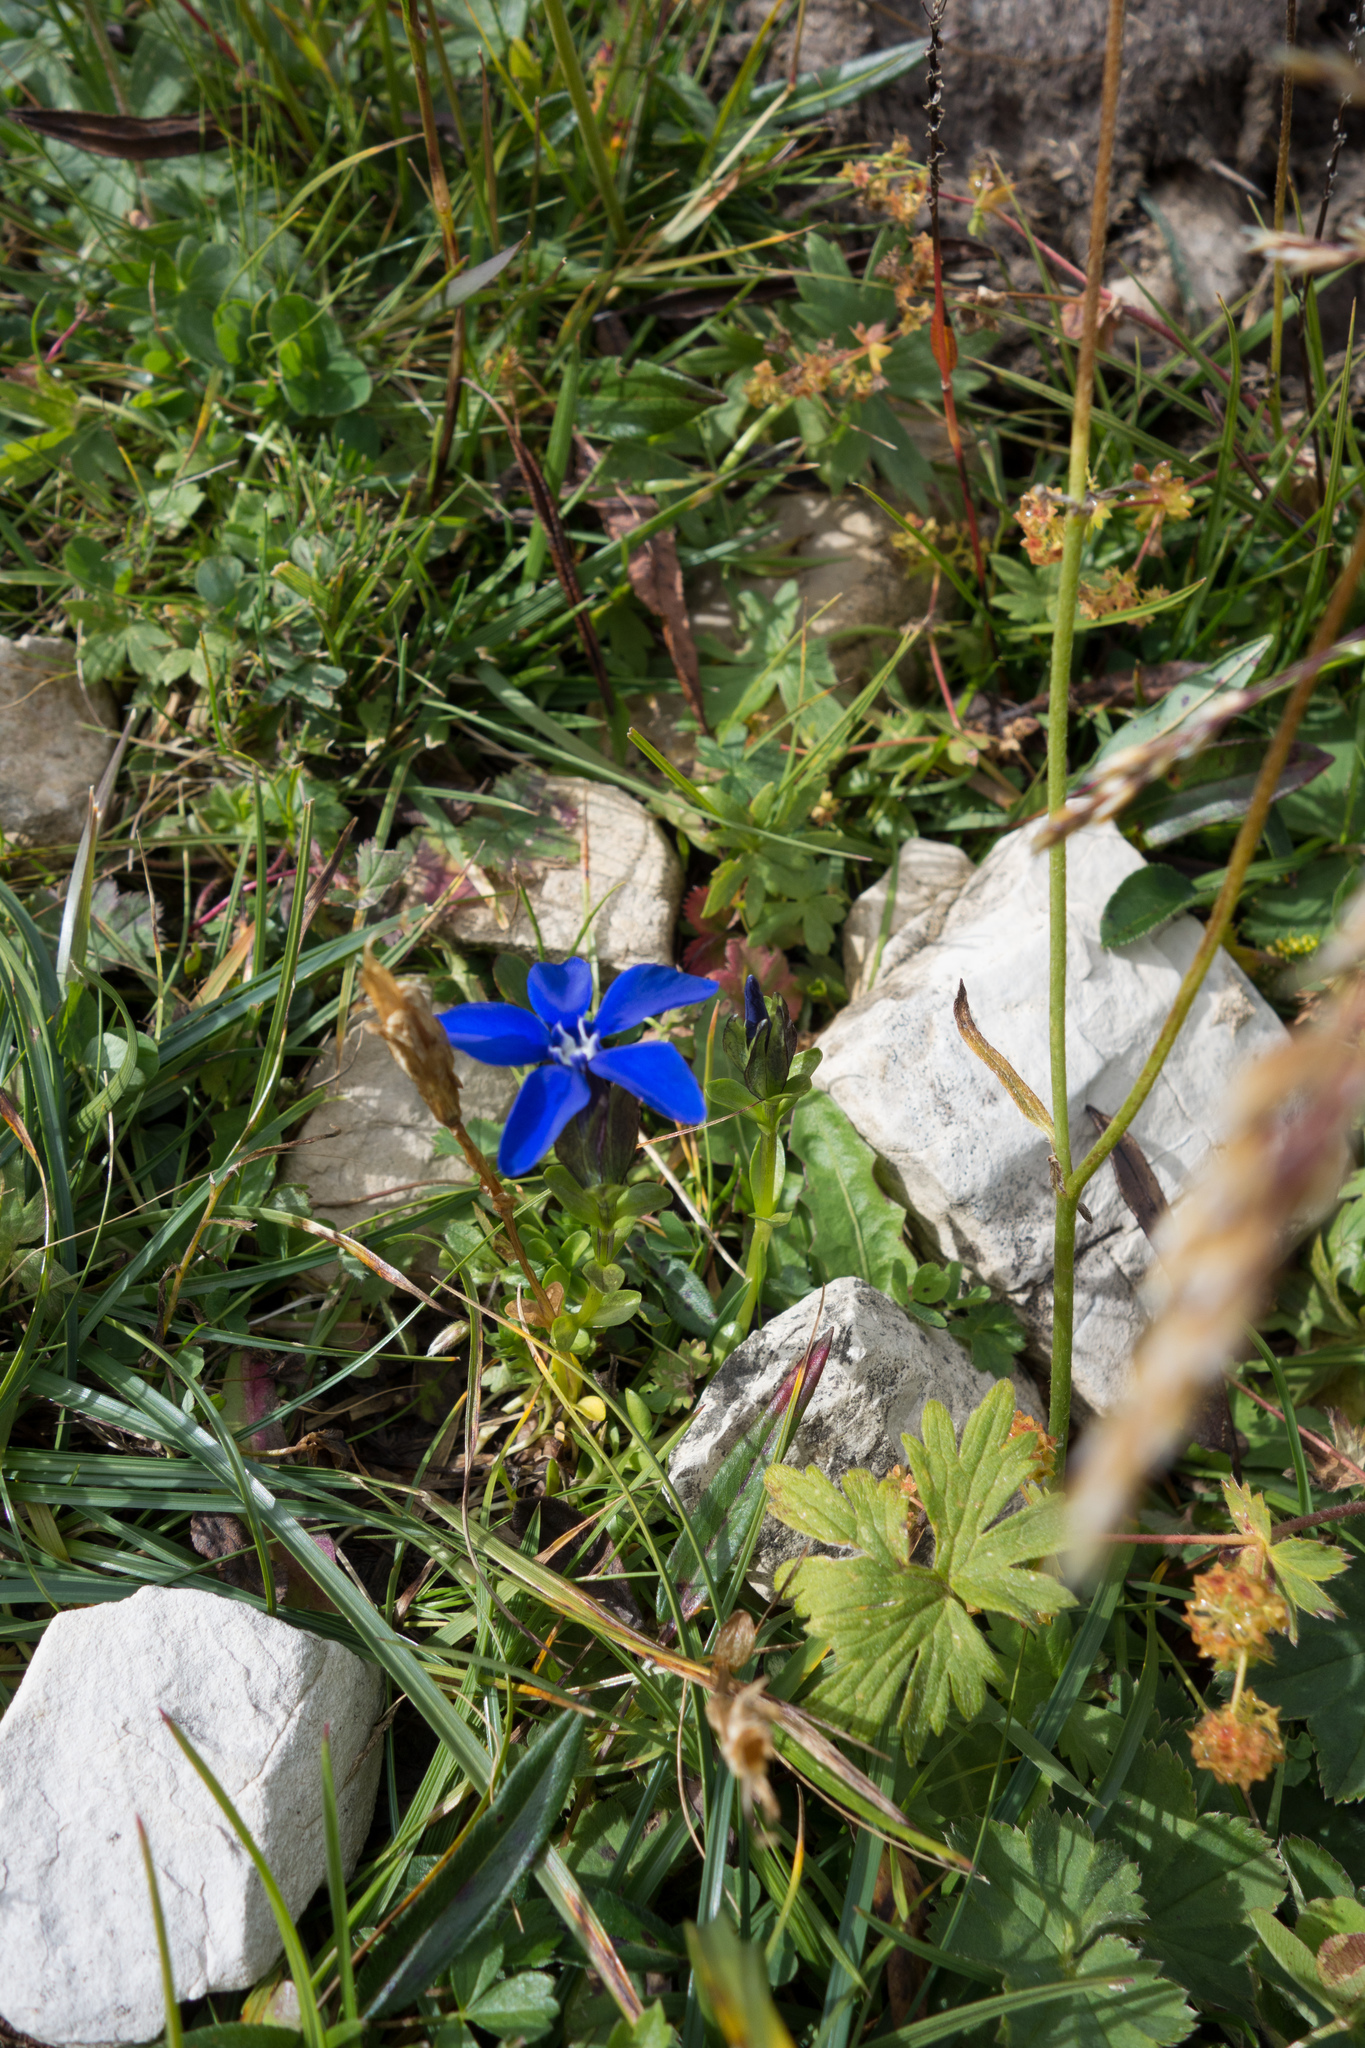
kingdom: Plantae
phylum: Tracheophyta
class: Magnoliopsida
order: Gentianales
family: Gentianaceae
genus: Gentiana
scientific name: Gentiana bavarica
